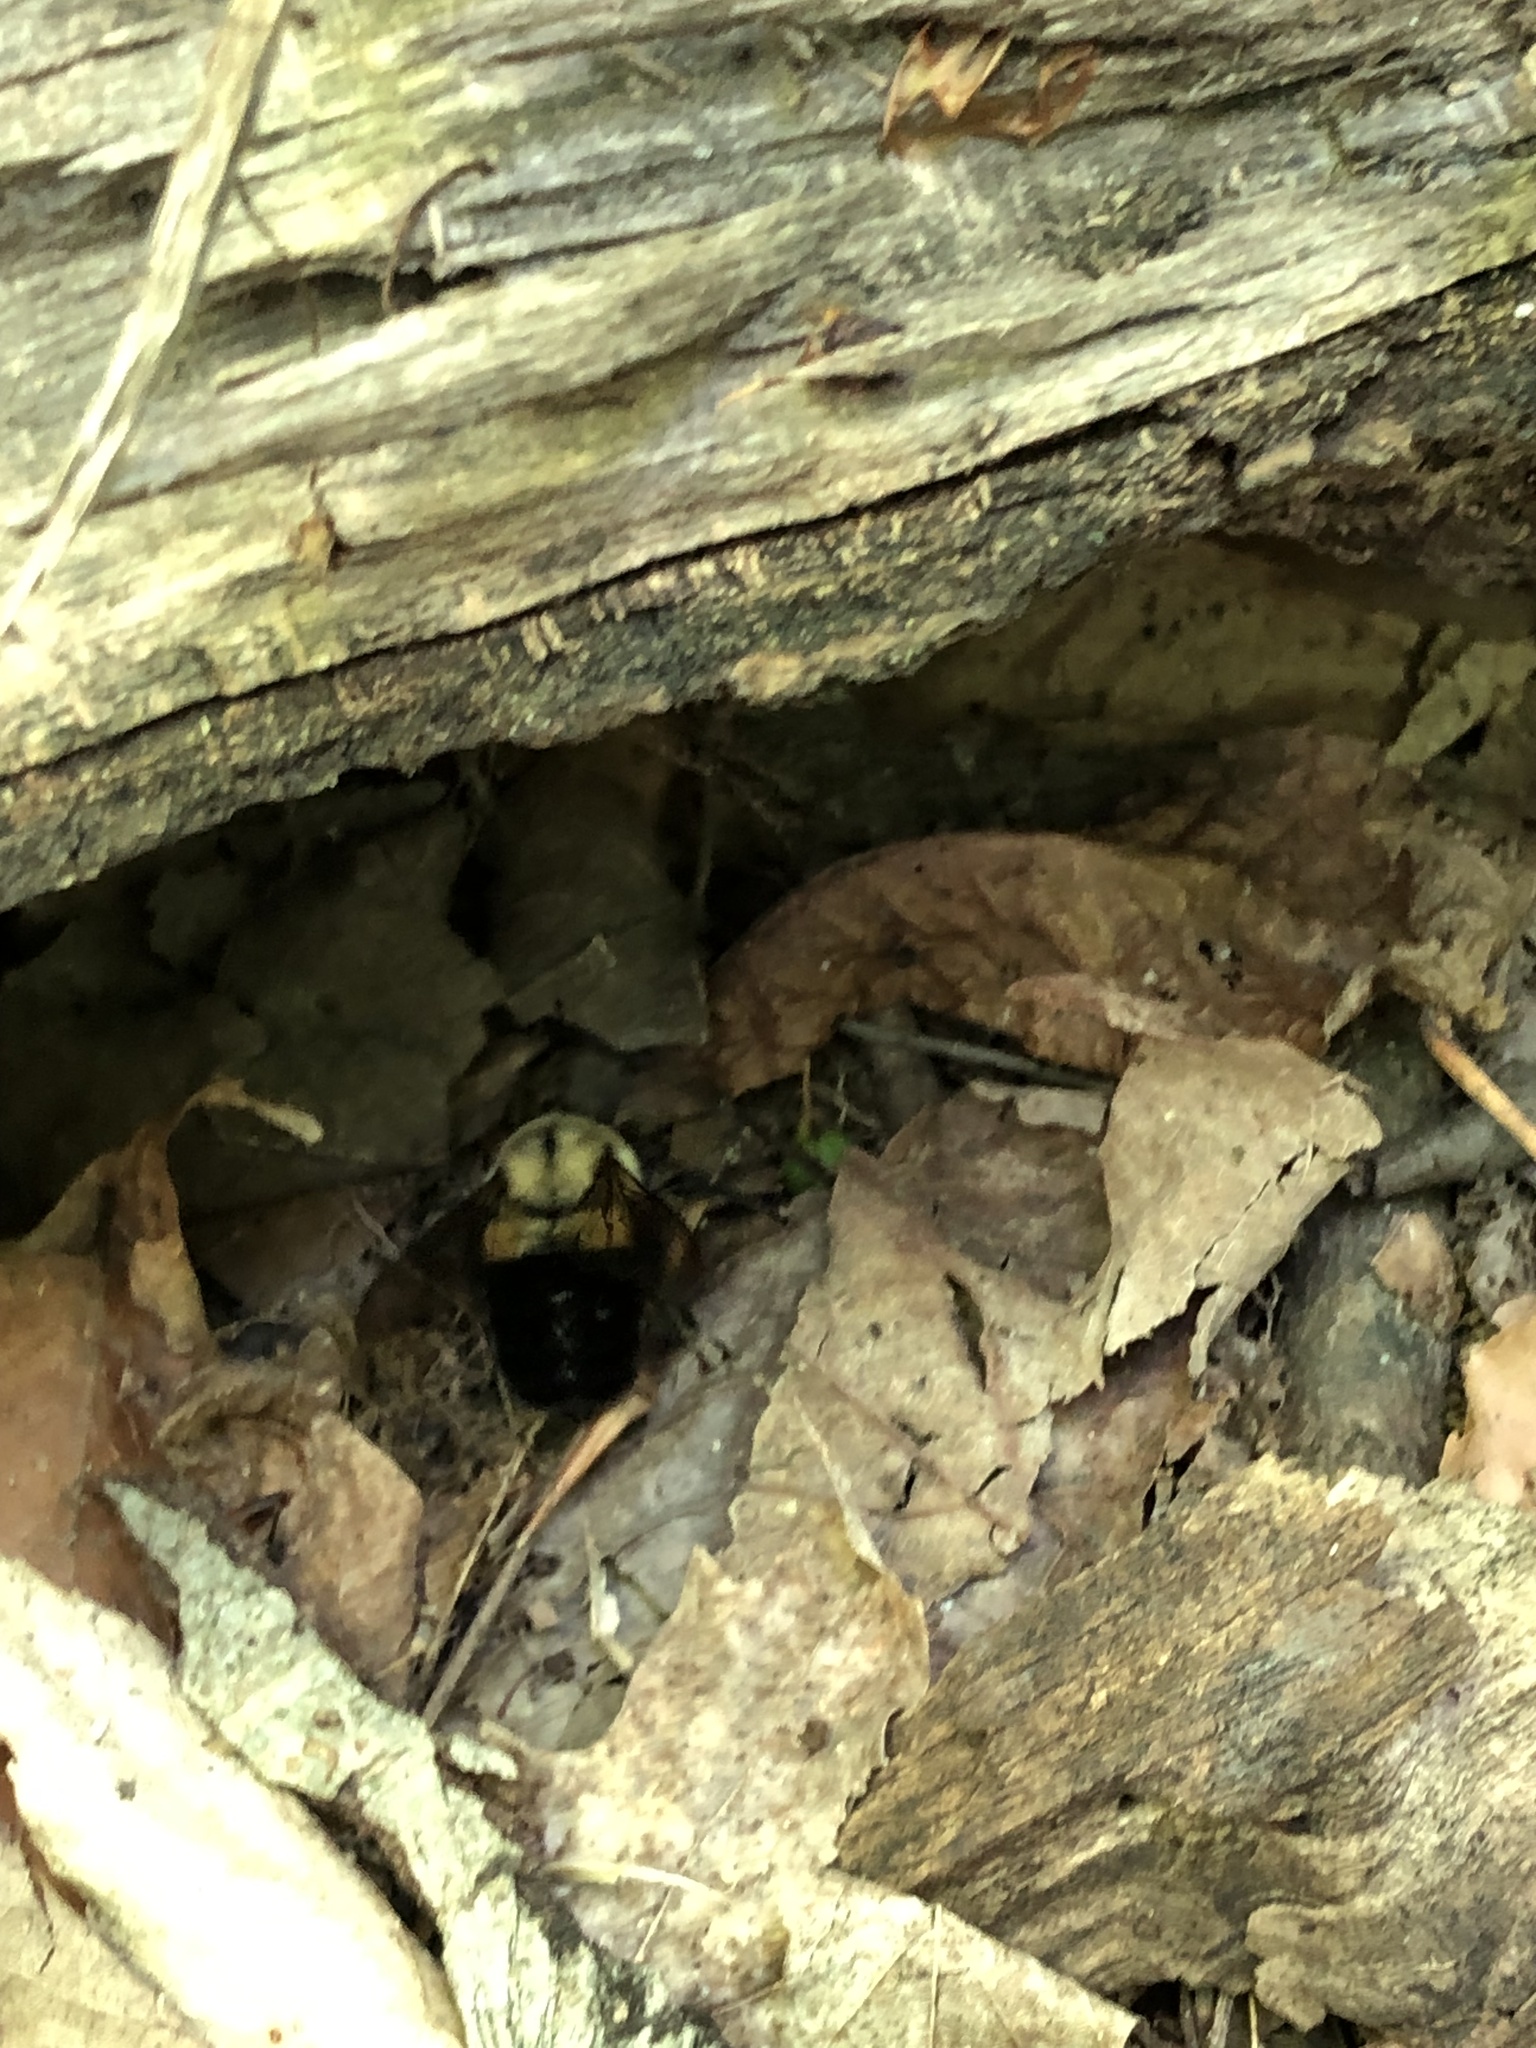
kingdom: Animalia
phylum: Arthropoda
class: Insecta
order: Hymenoptera
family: Apidae
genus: Bombus
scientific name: Bombus impatiens
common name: Common eastern bumble bee
